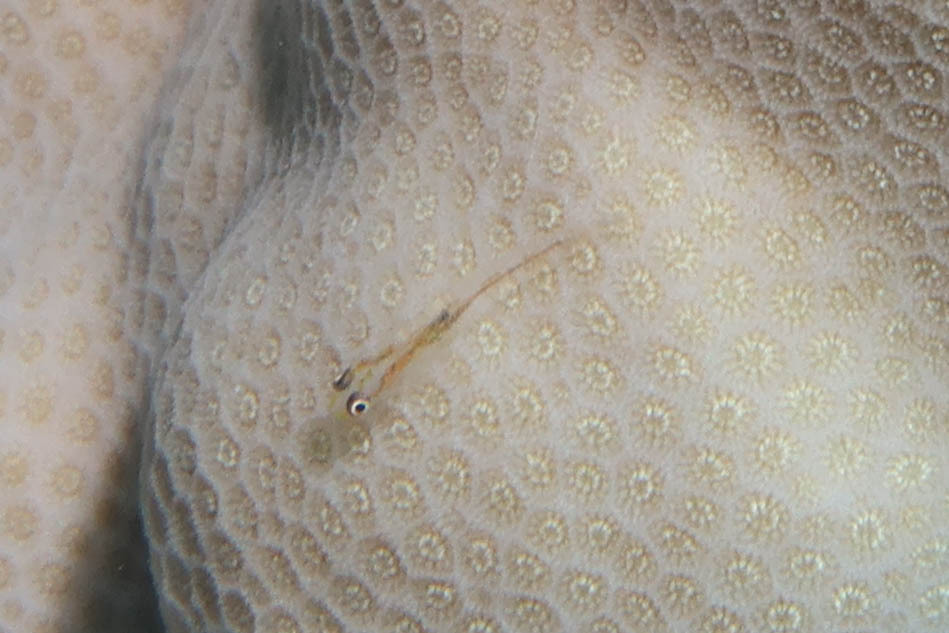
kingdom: Animalia
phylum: Chordata
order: Perciformes
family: Gobiidae
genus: Pleurosicya
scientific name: Pleurosicya mossambica
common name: Common ghost goby
